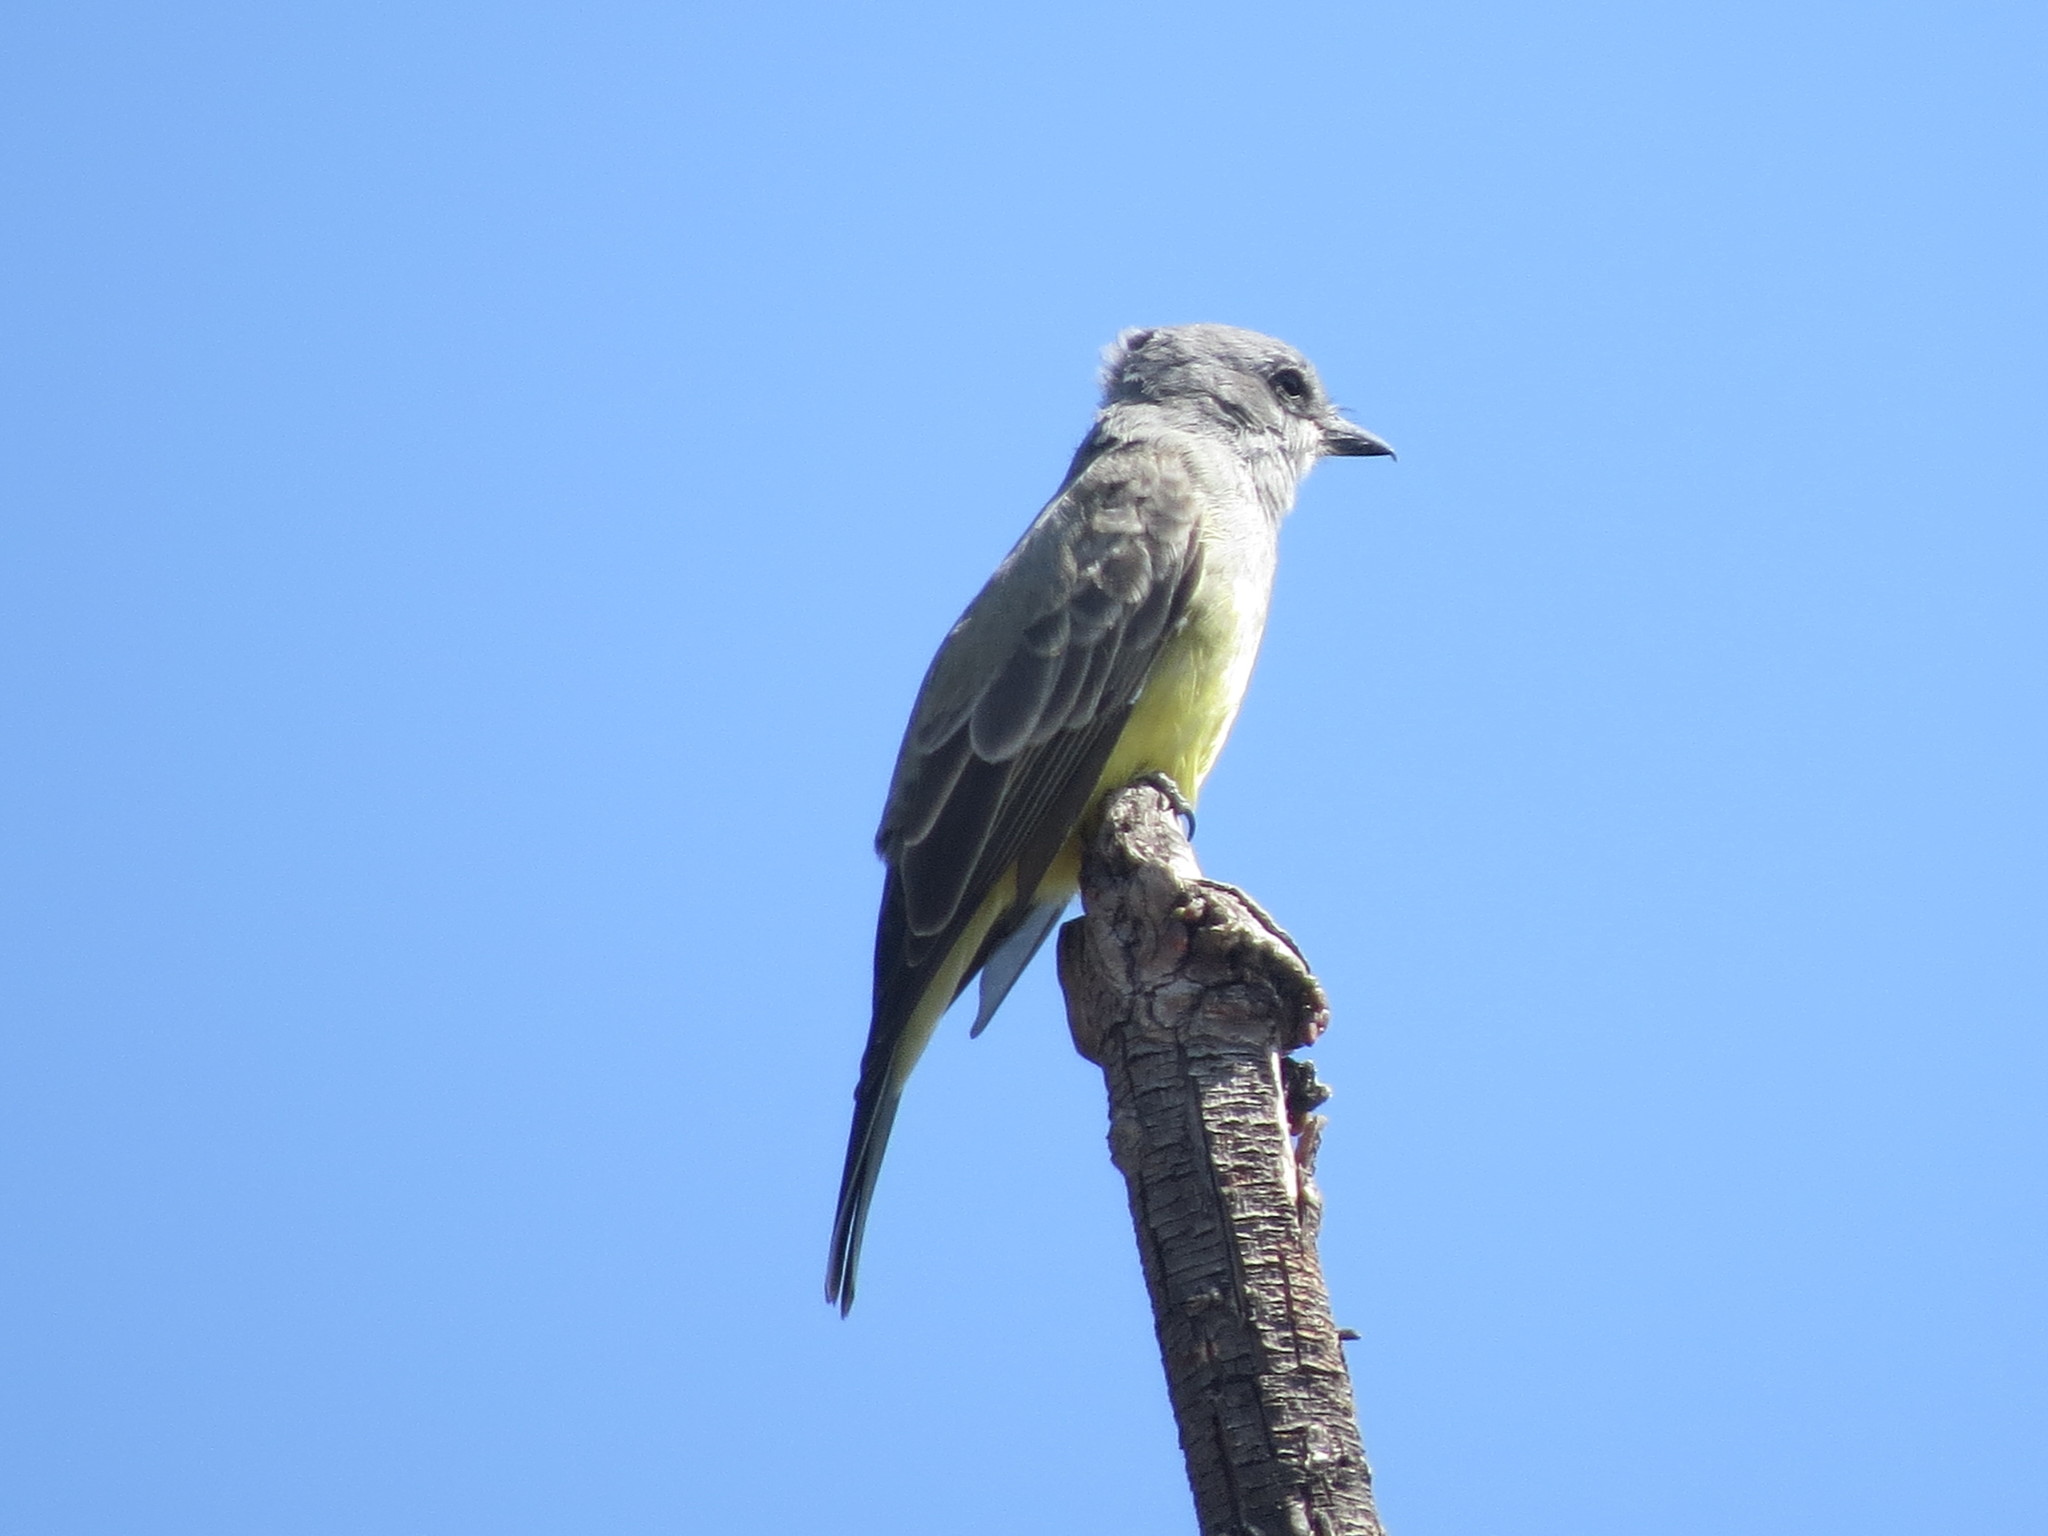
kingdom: Animalia
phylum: Chordata
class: Aves
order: Passeriformes
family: Tyrannidae
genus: Tyrannus
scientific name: Tyrannus vociferans
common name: Cassin's kingbird
